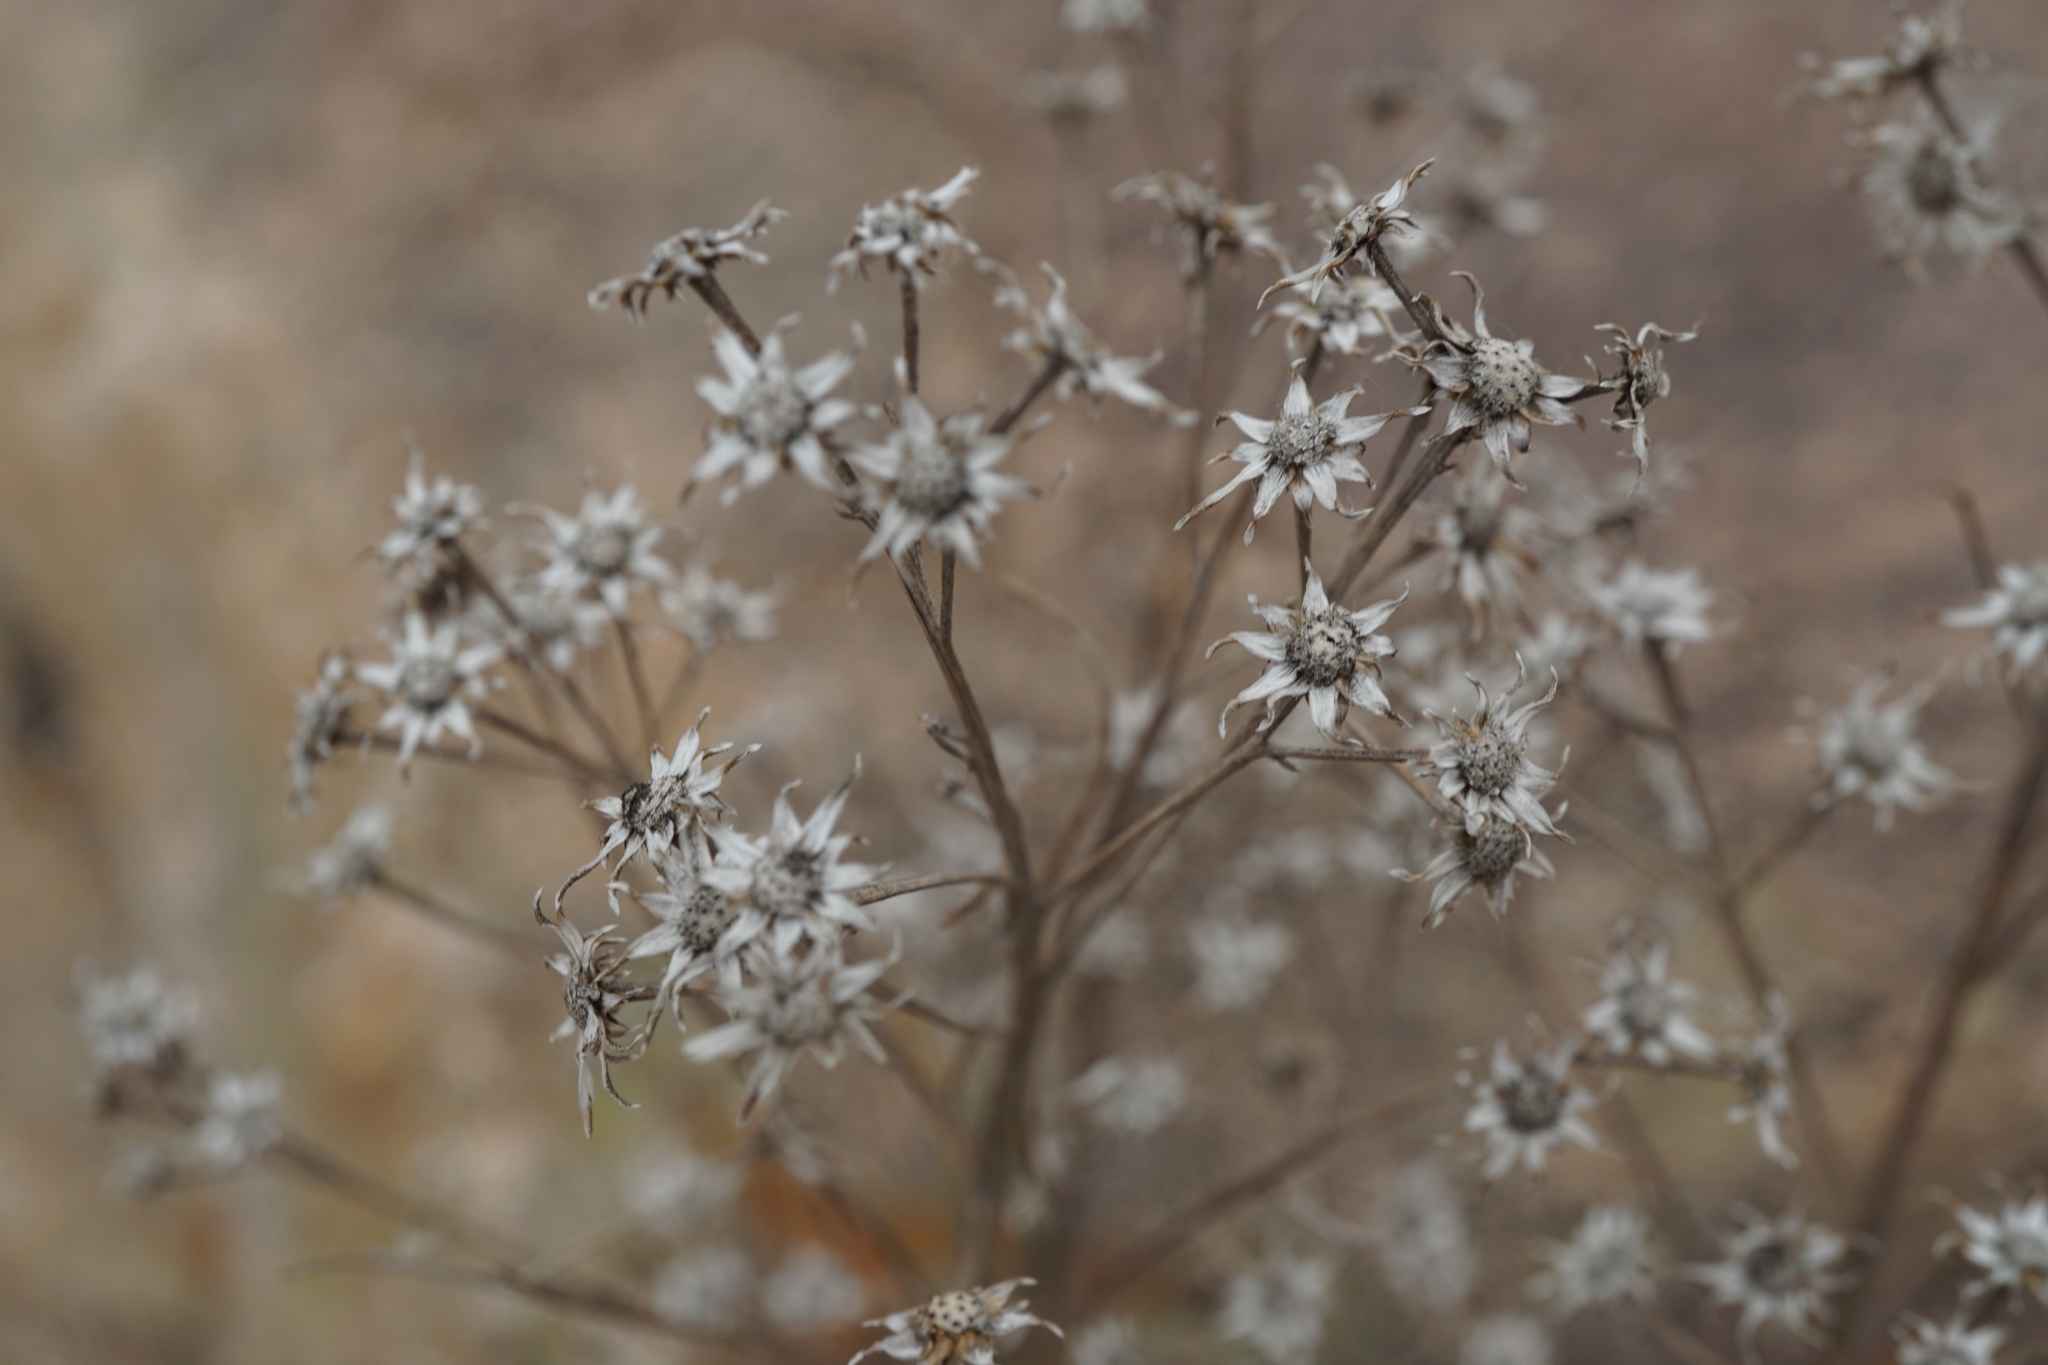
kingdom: Plantae
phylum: Tracheophyta
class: Magnoliopsida
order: Asterales
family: Asteraceae
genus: Vernonanthura
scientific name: Vernonanthura nudiflora
